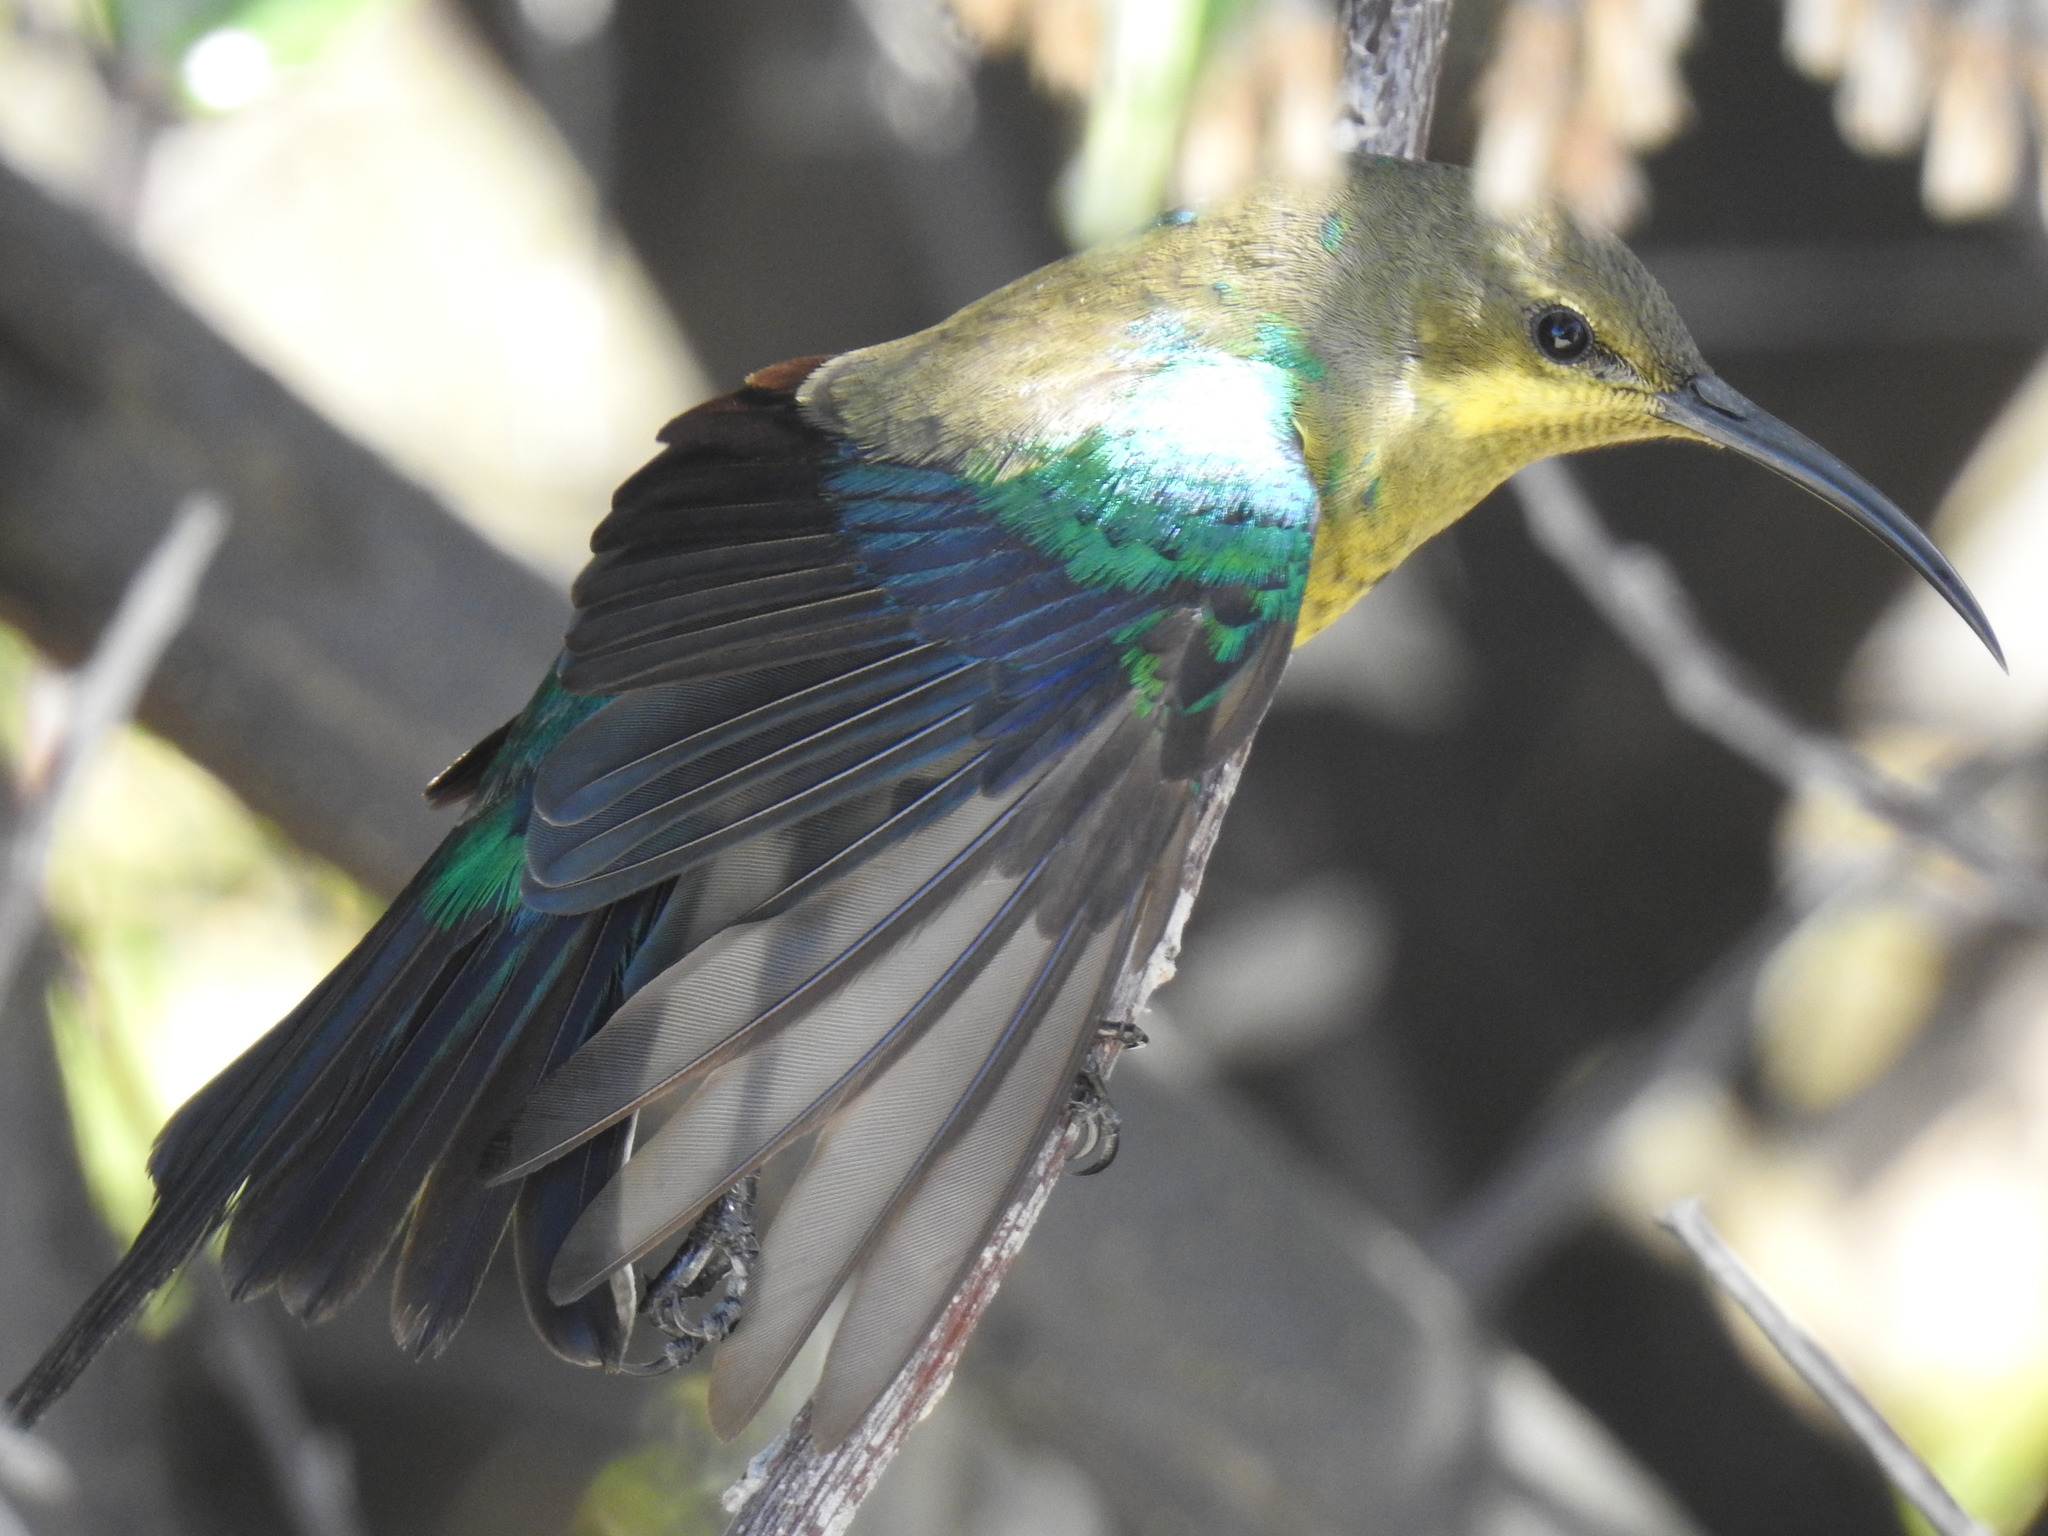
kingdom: Animalia
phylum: Chordata
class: Aves
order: Passeriformes
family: Nectariniidae
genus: Nectarinia
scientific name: Nectarinia famosa
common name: Malachite sunbird
